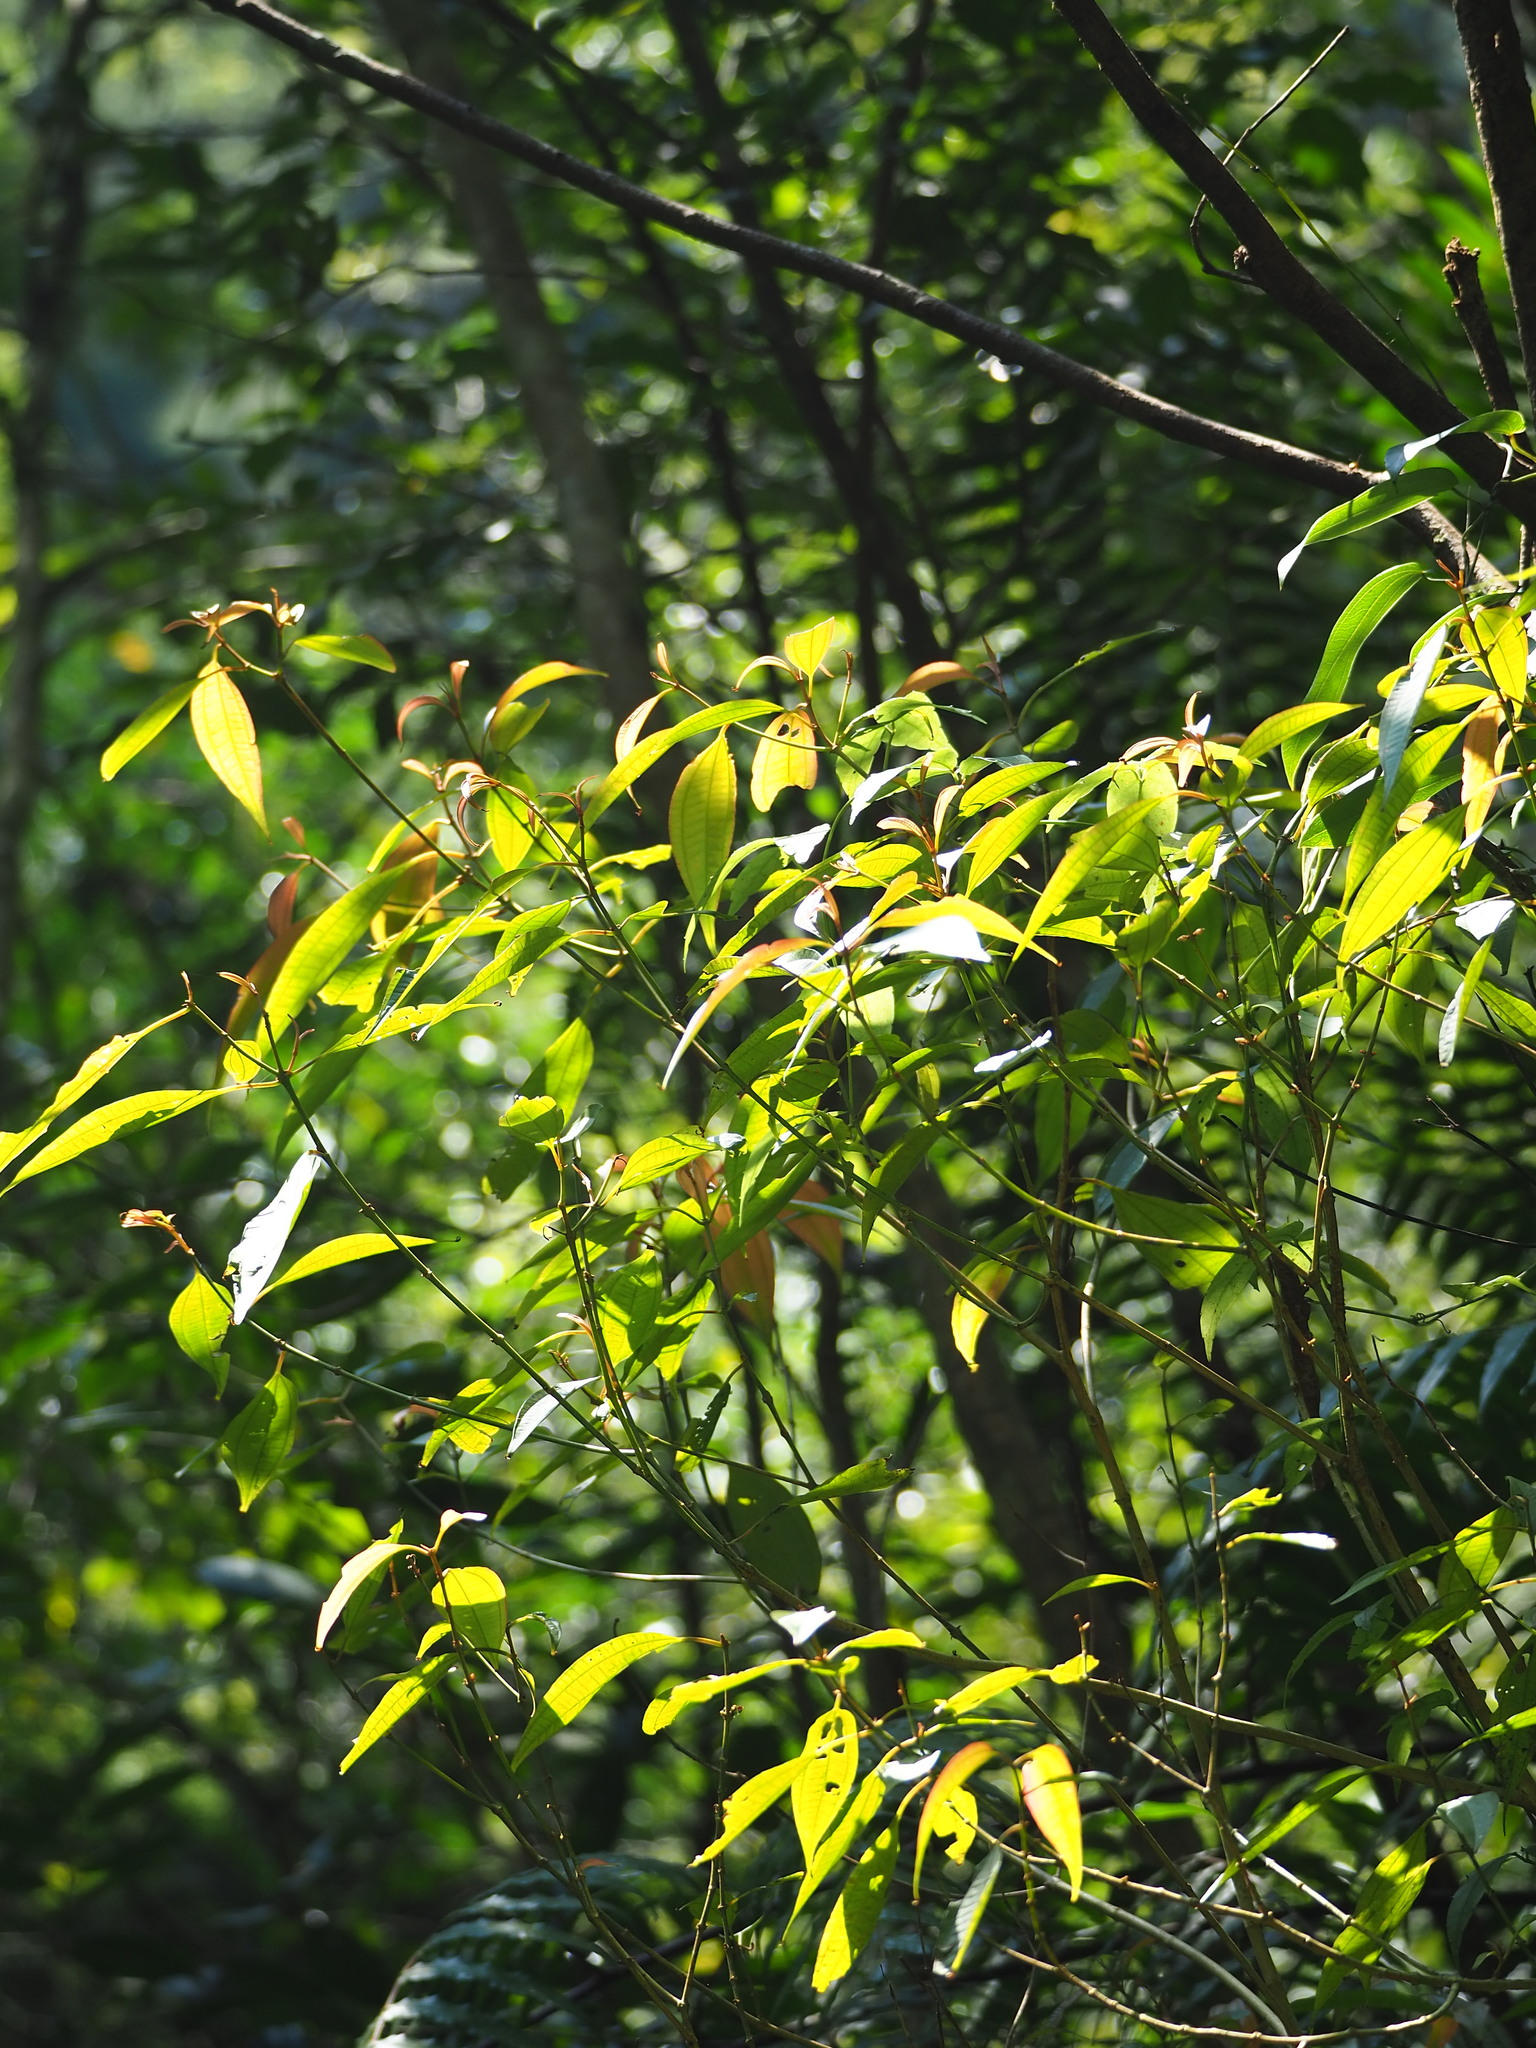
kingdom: Plantae
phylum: Tracheophyta
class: Magnoliopsida
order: Myrtales
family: Melastomataceae
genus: Blastus
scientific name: Blastus cochinchinensis
